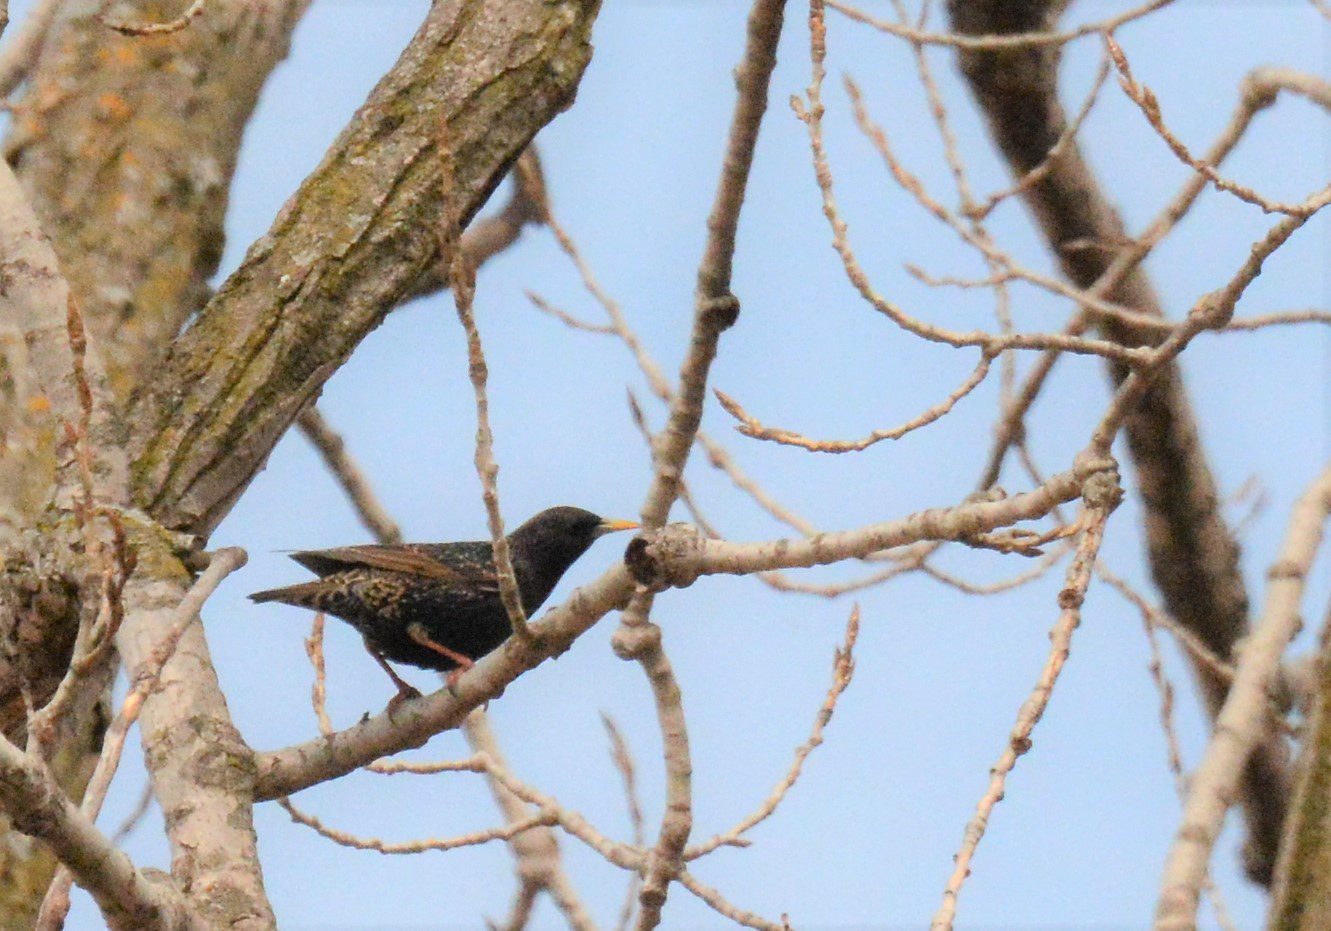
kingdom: Animalia
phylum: Chordata
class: Aves
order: Passeriformes
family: Sturnidae
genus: Sturnus
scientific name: Sturnus vulgaris
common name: Common starling
